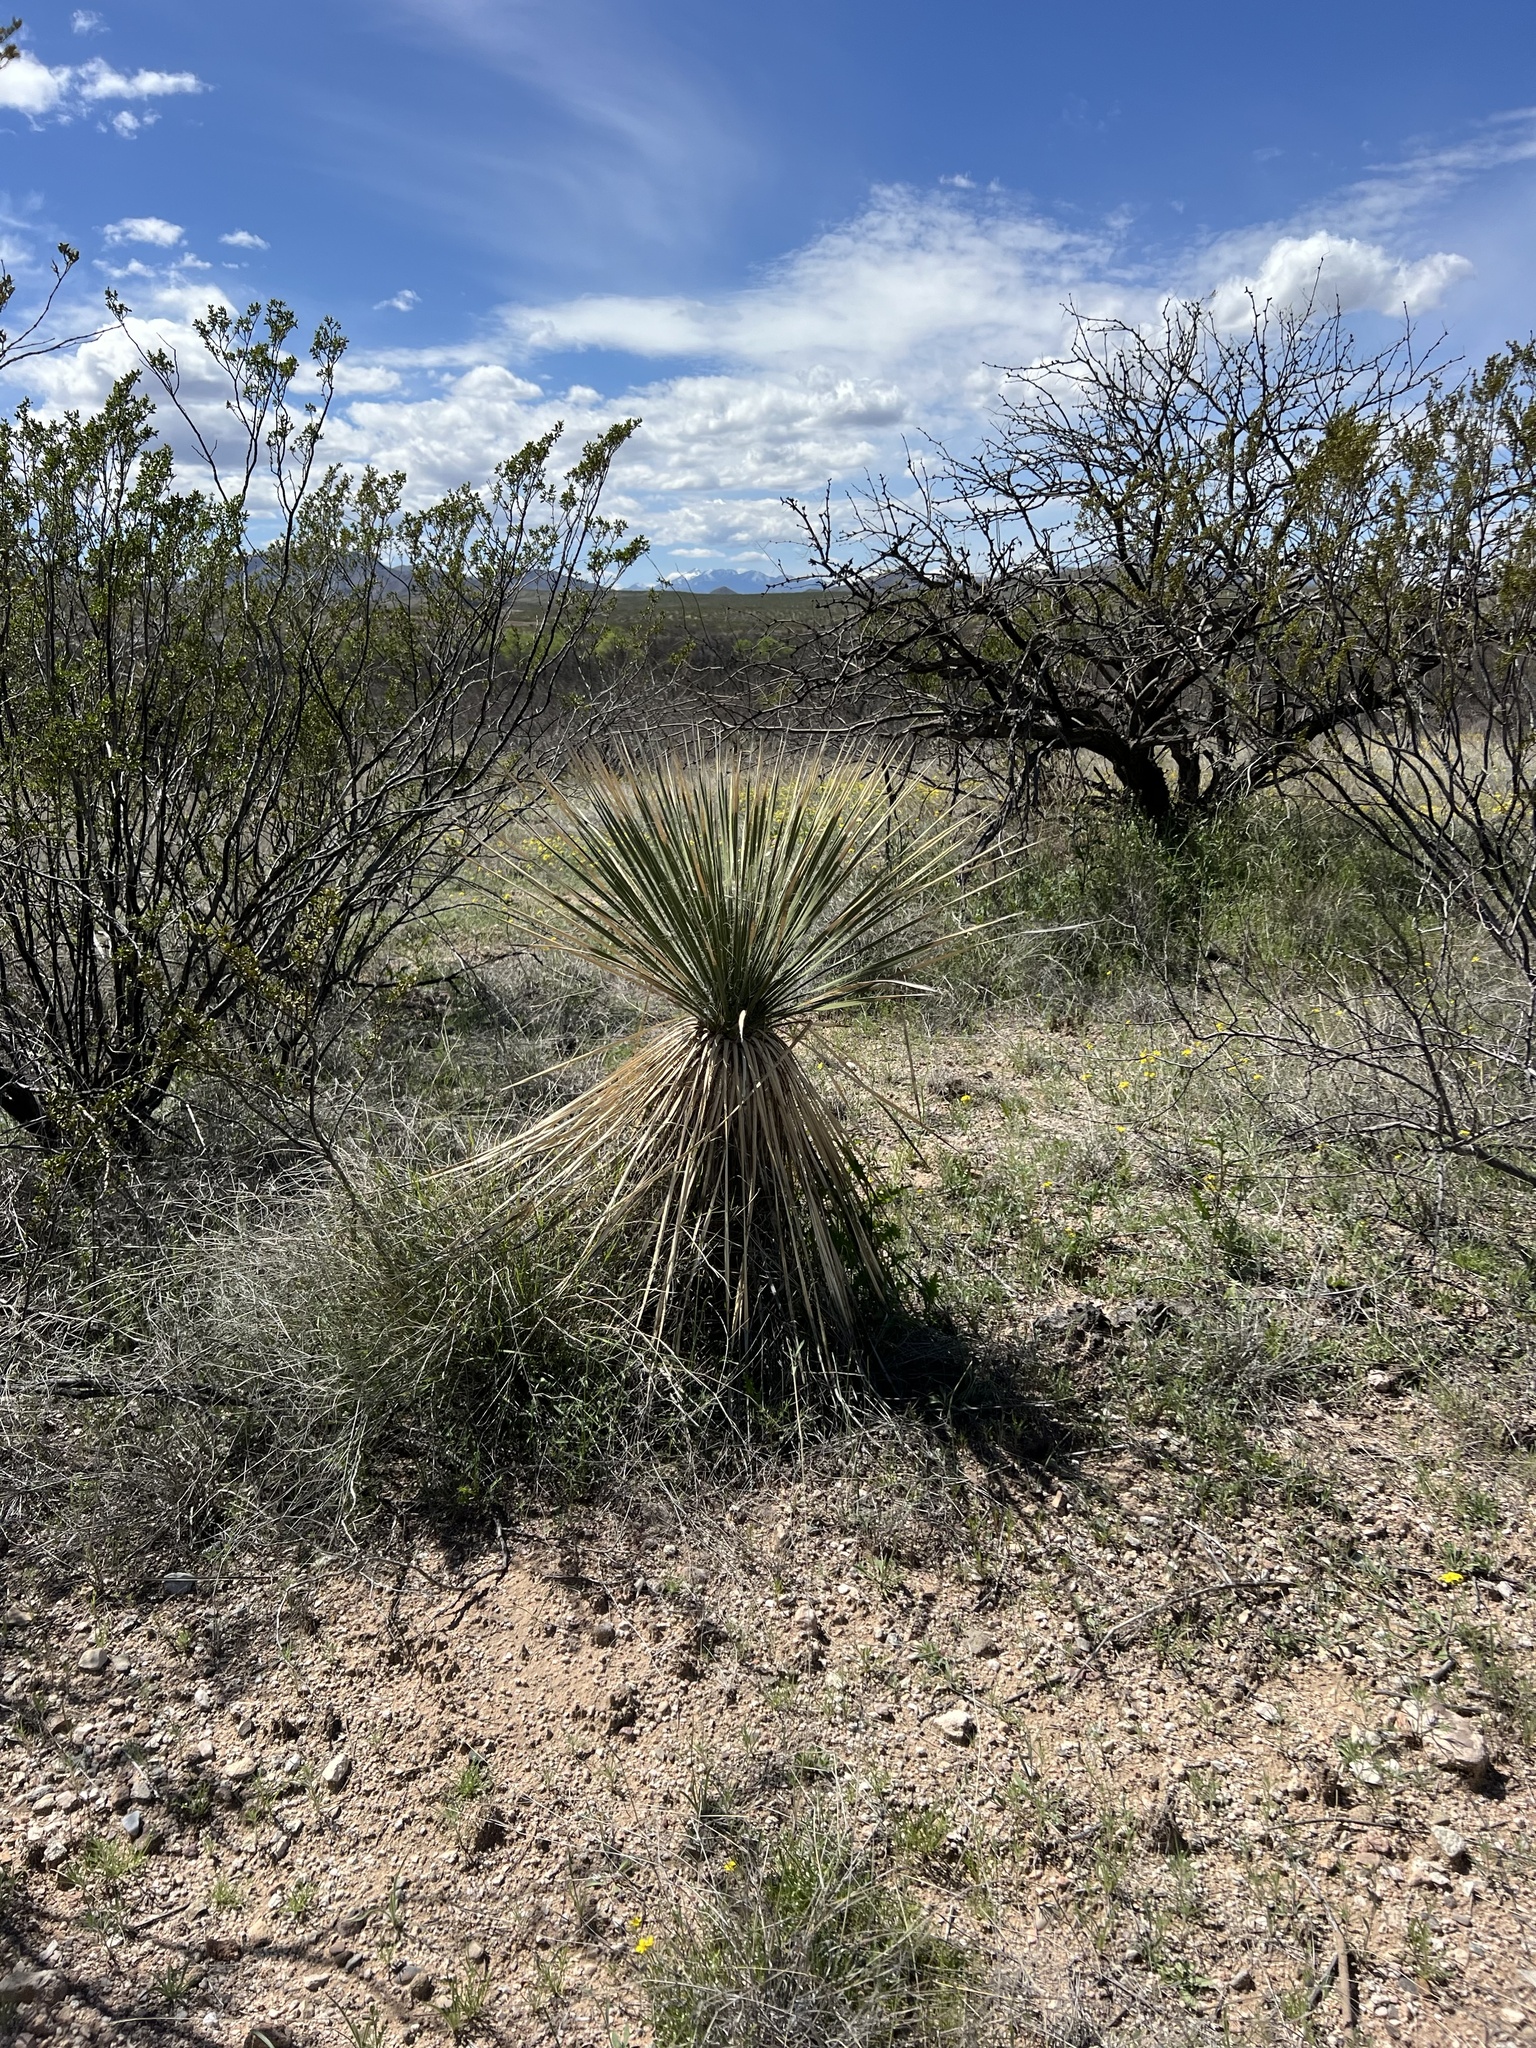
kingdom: Plantae
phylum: Tracheophyta
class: Liliopsida
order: Asparagales
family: Asparagaceae
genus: Yucca
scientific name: Yucca elata
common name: Palmella
